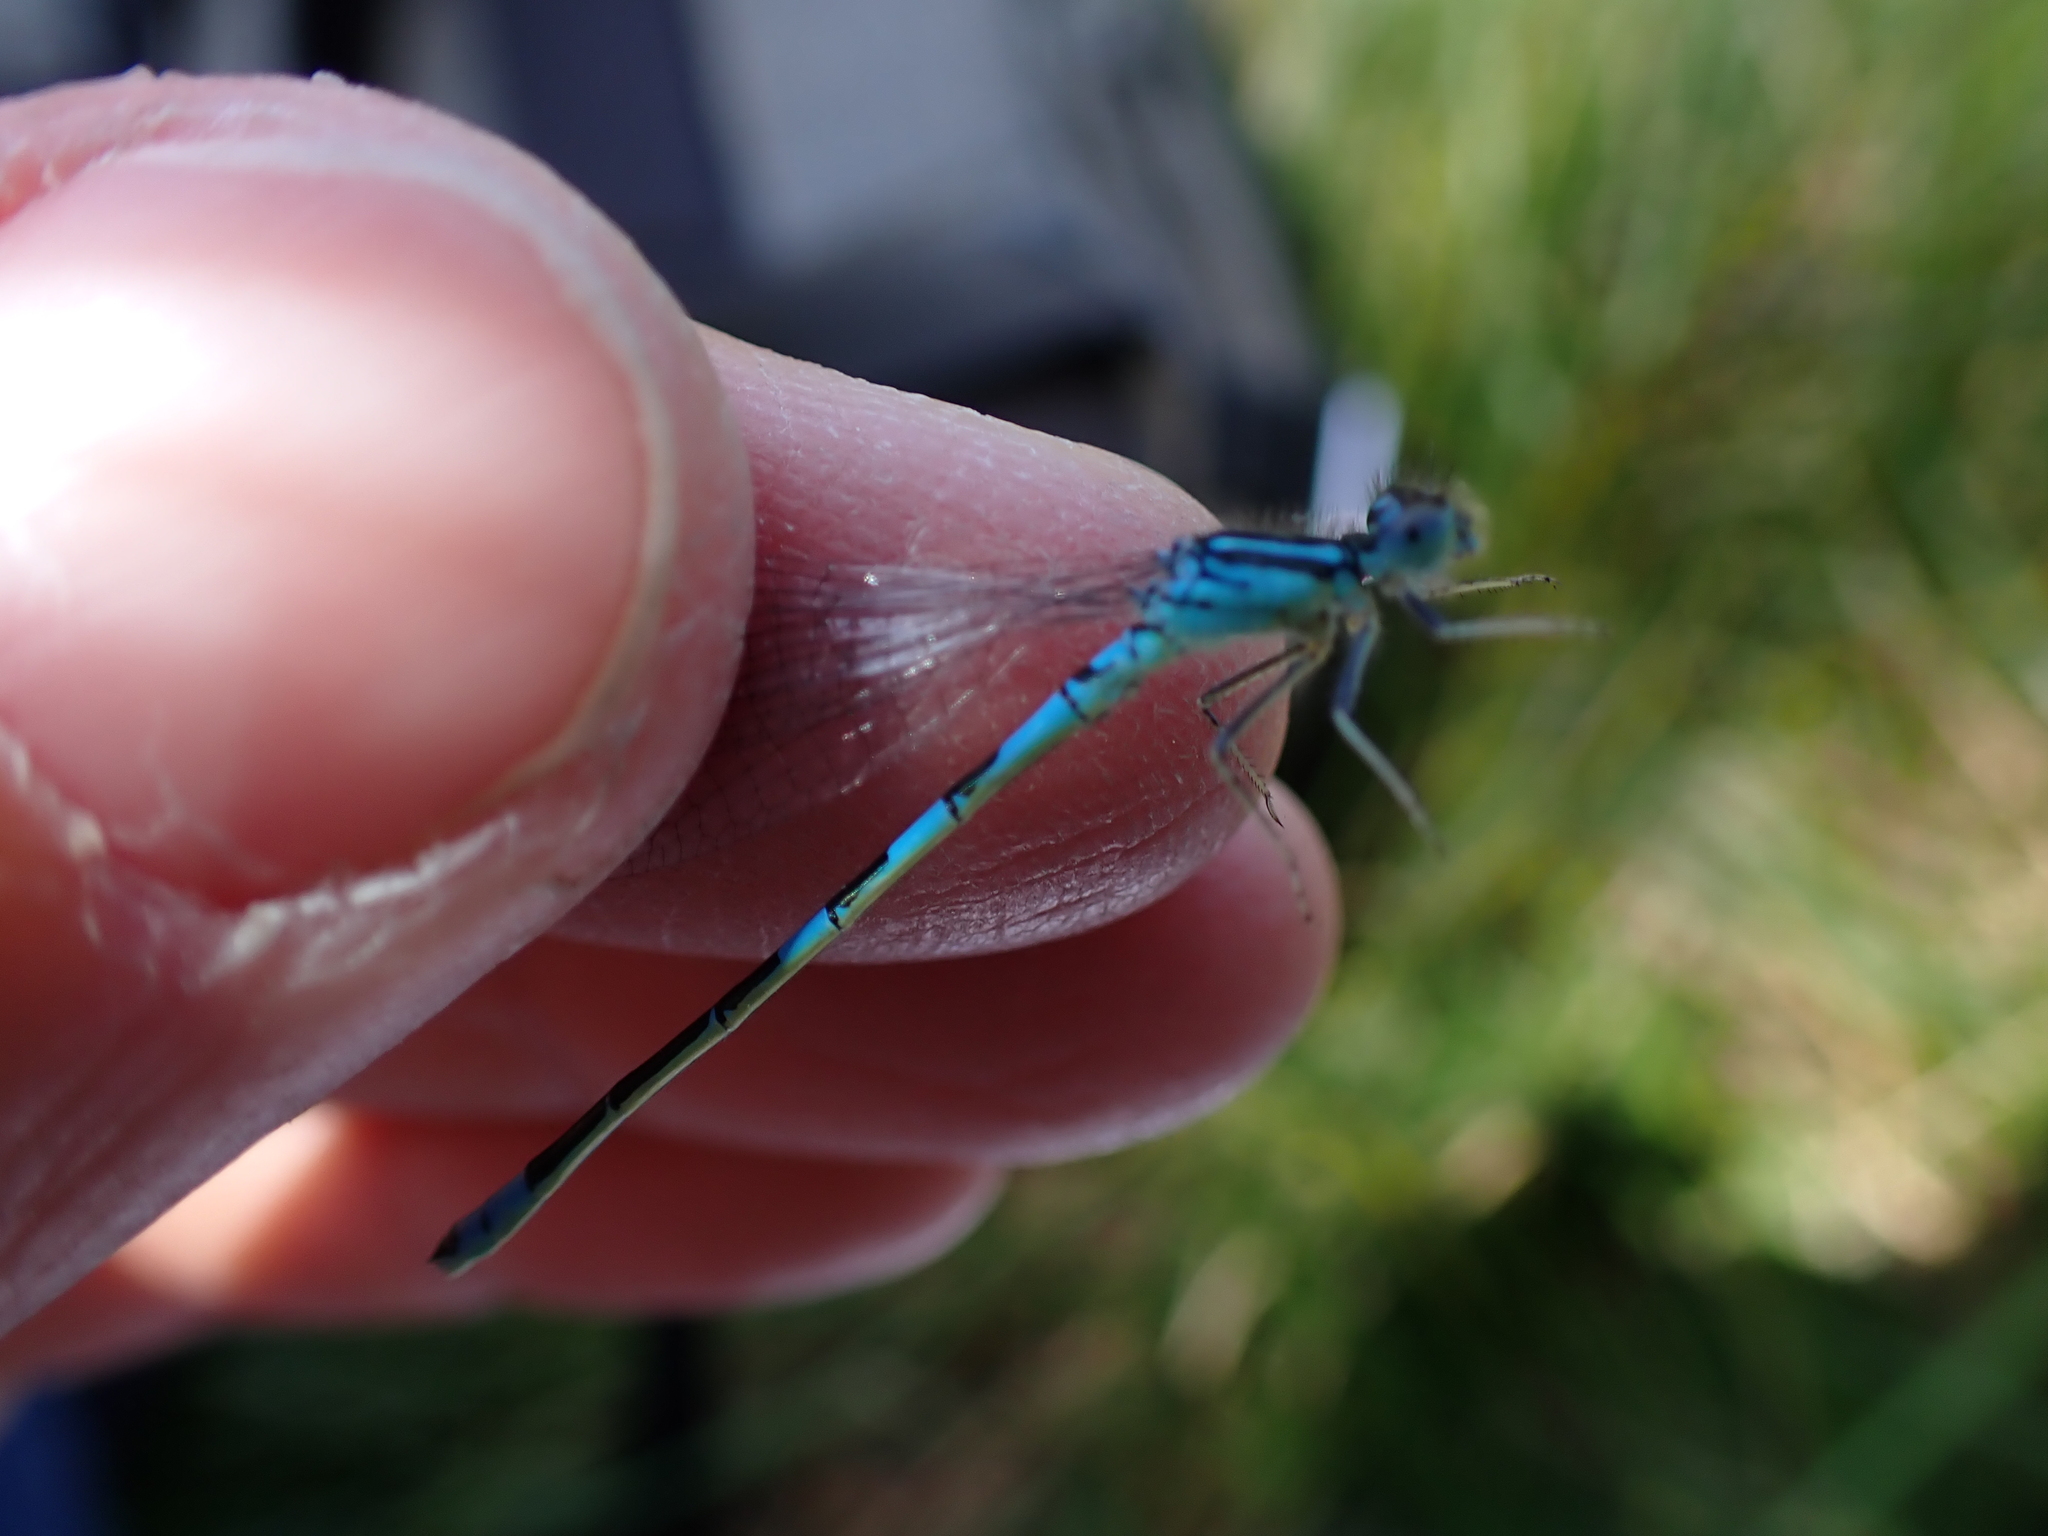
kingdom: Animalia
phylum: Arthropoda
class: Insecta
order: Odonata
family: Coenagrionidae
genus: Coenagrion
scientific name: Coenagrion scitulum
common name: Dainty bluet
